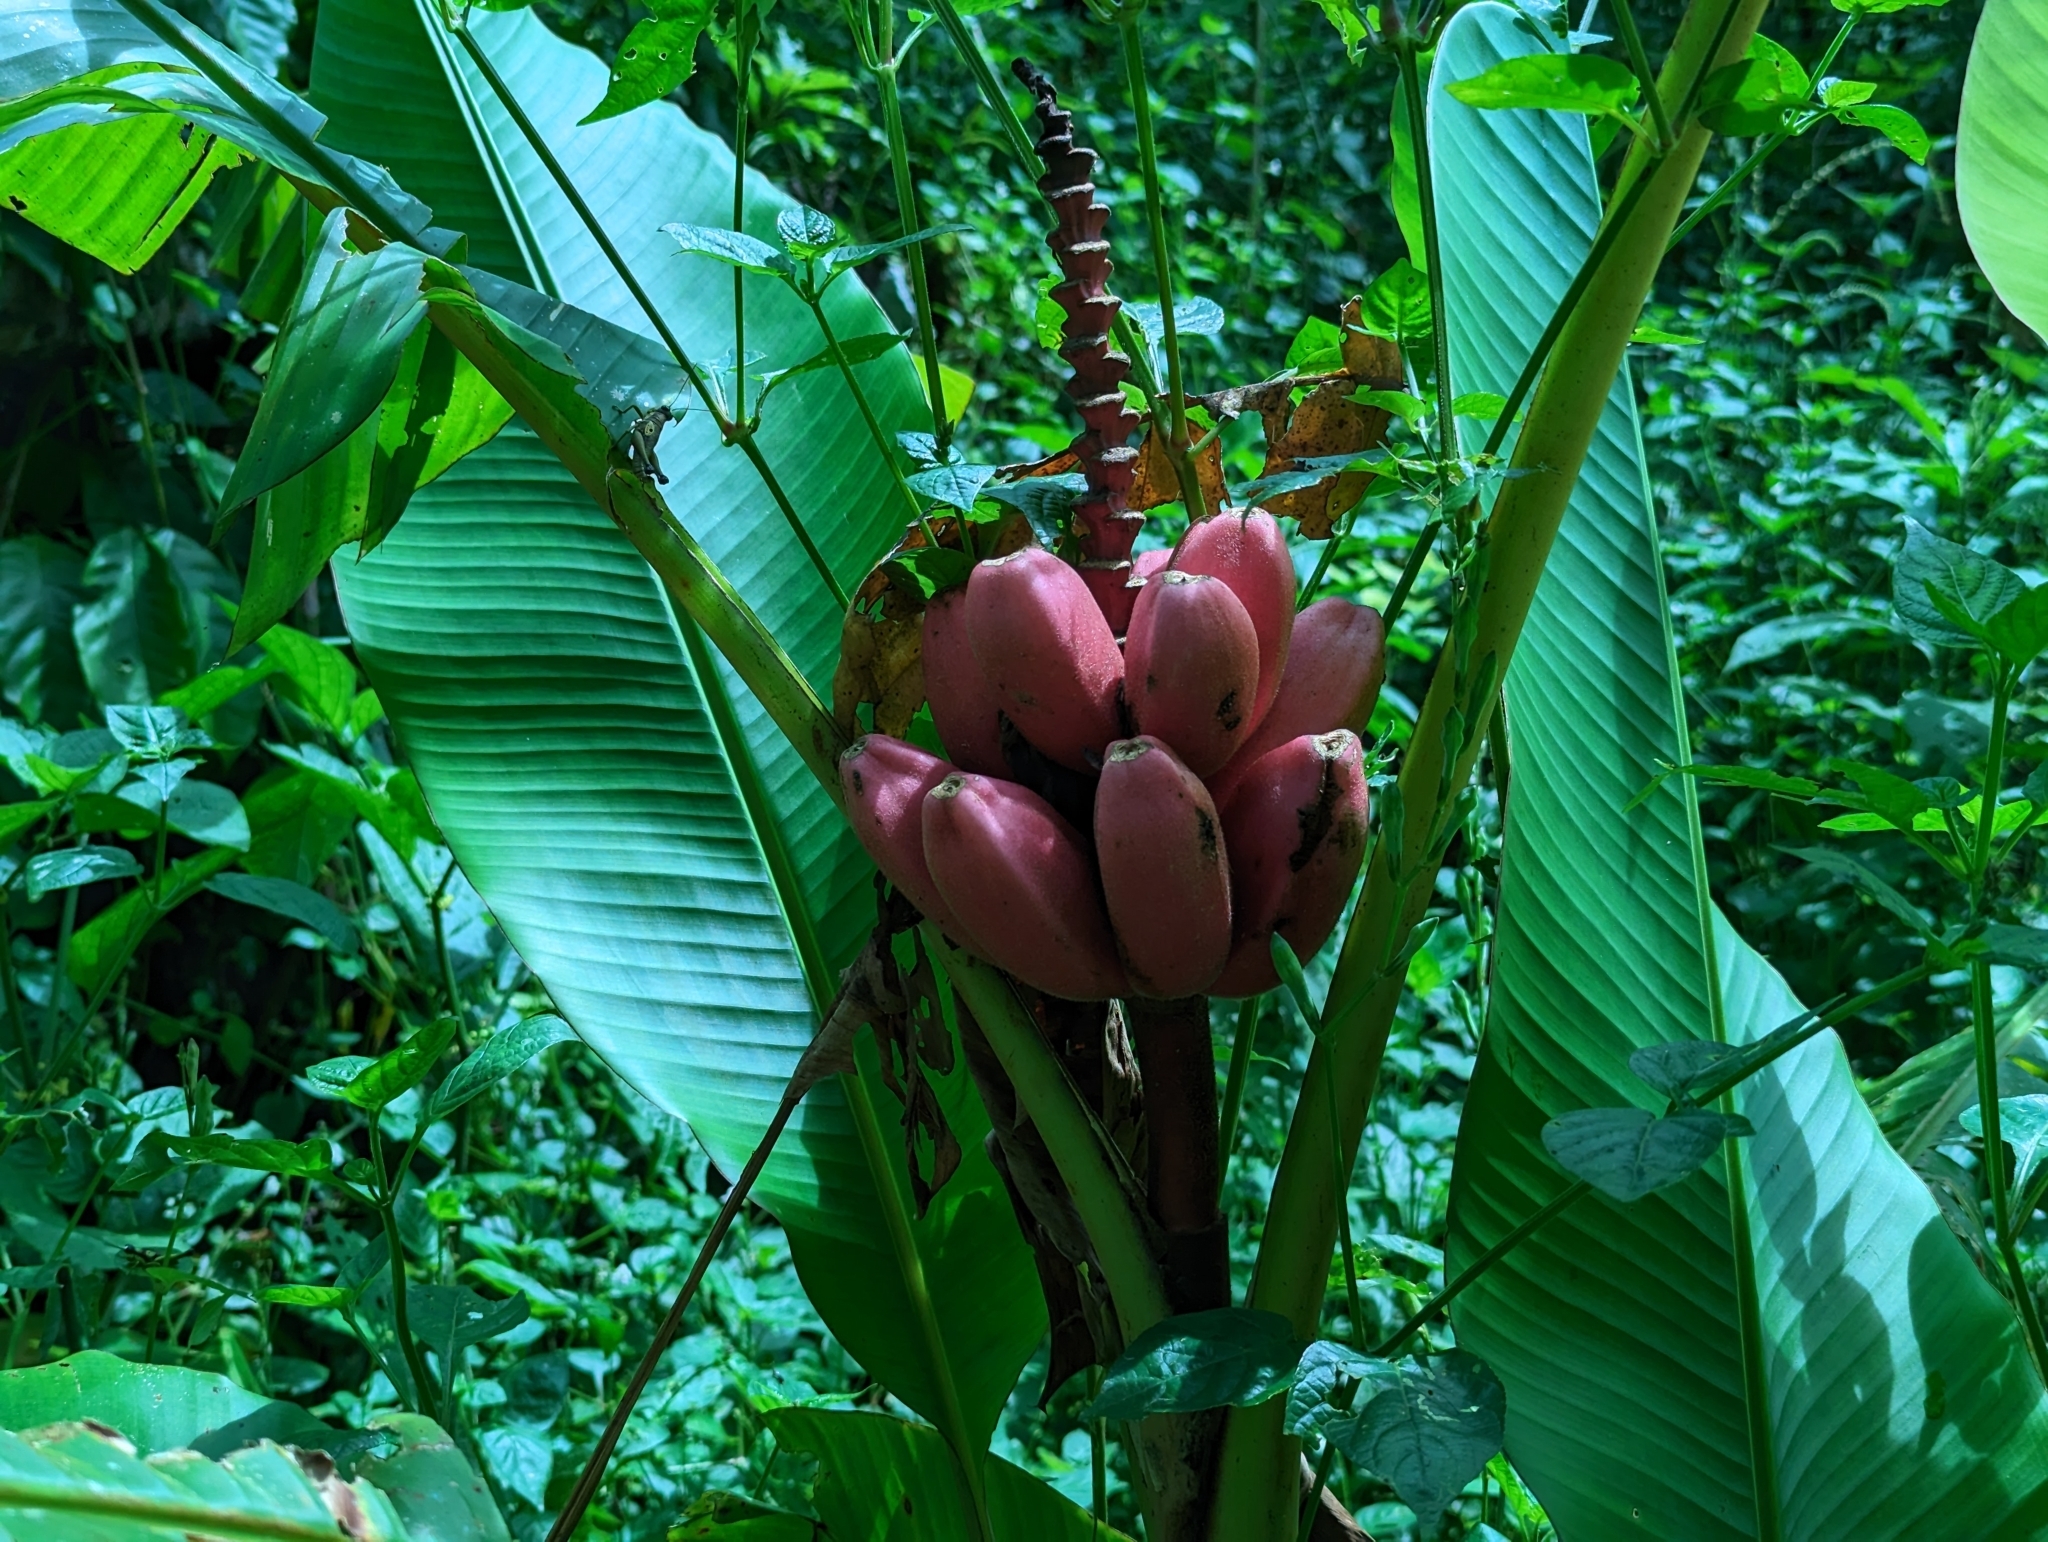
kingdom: Plantae
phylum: Tracheophyta
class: Liliopsida
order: Zingiberales
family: Musaceae
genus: Musa
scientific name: Musa velutina
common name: Pink velvet banana
